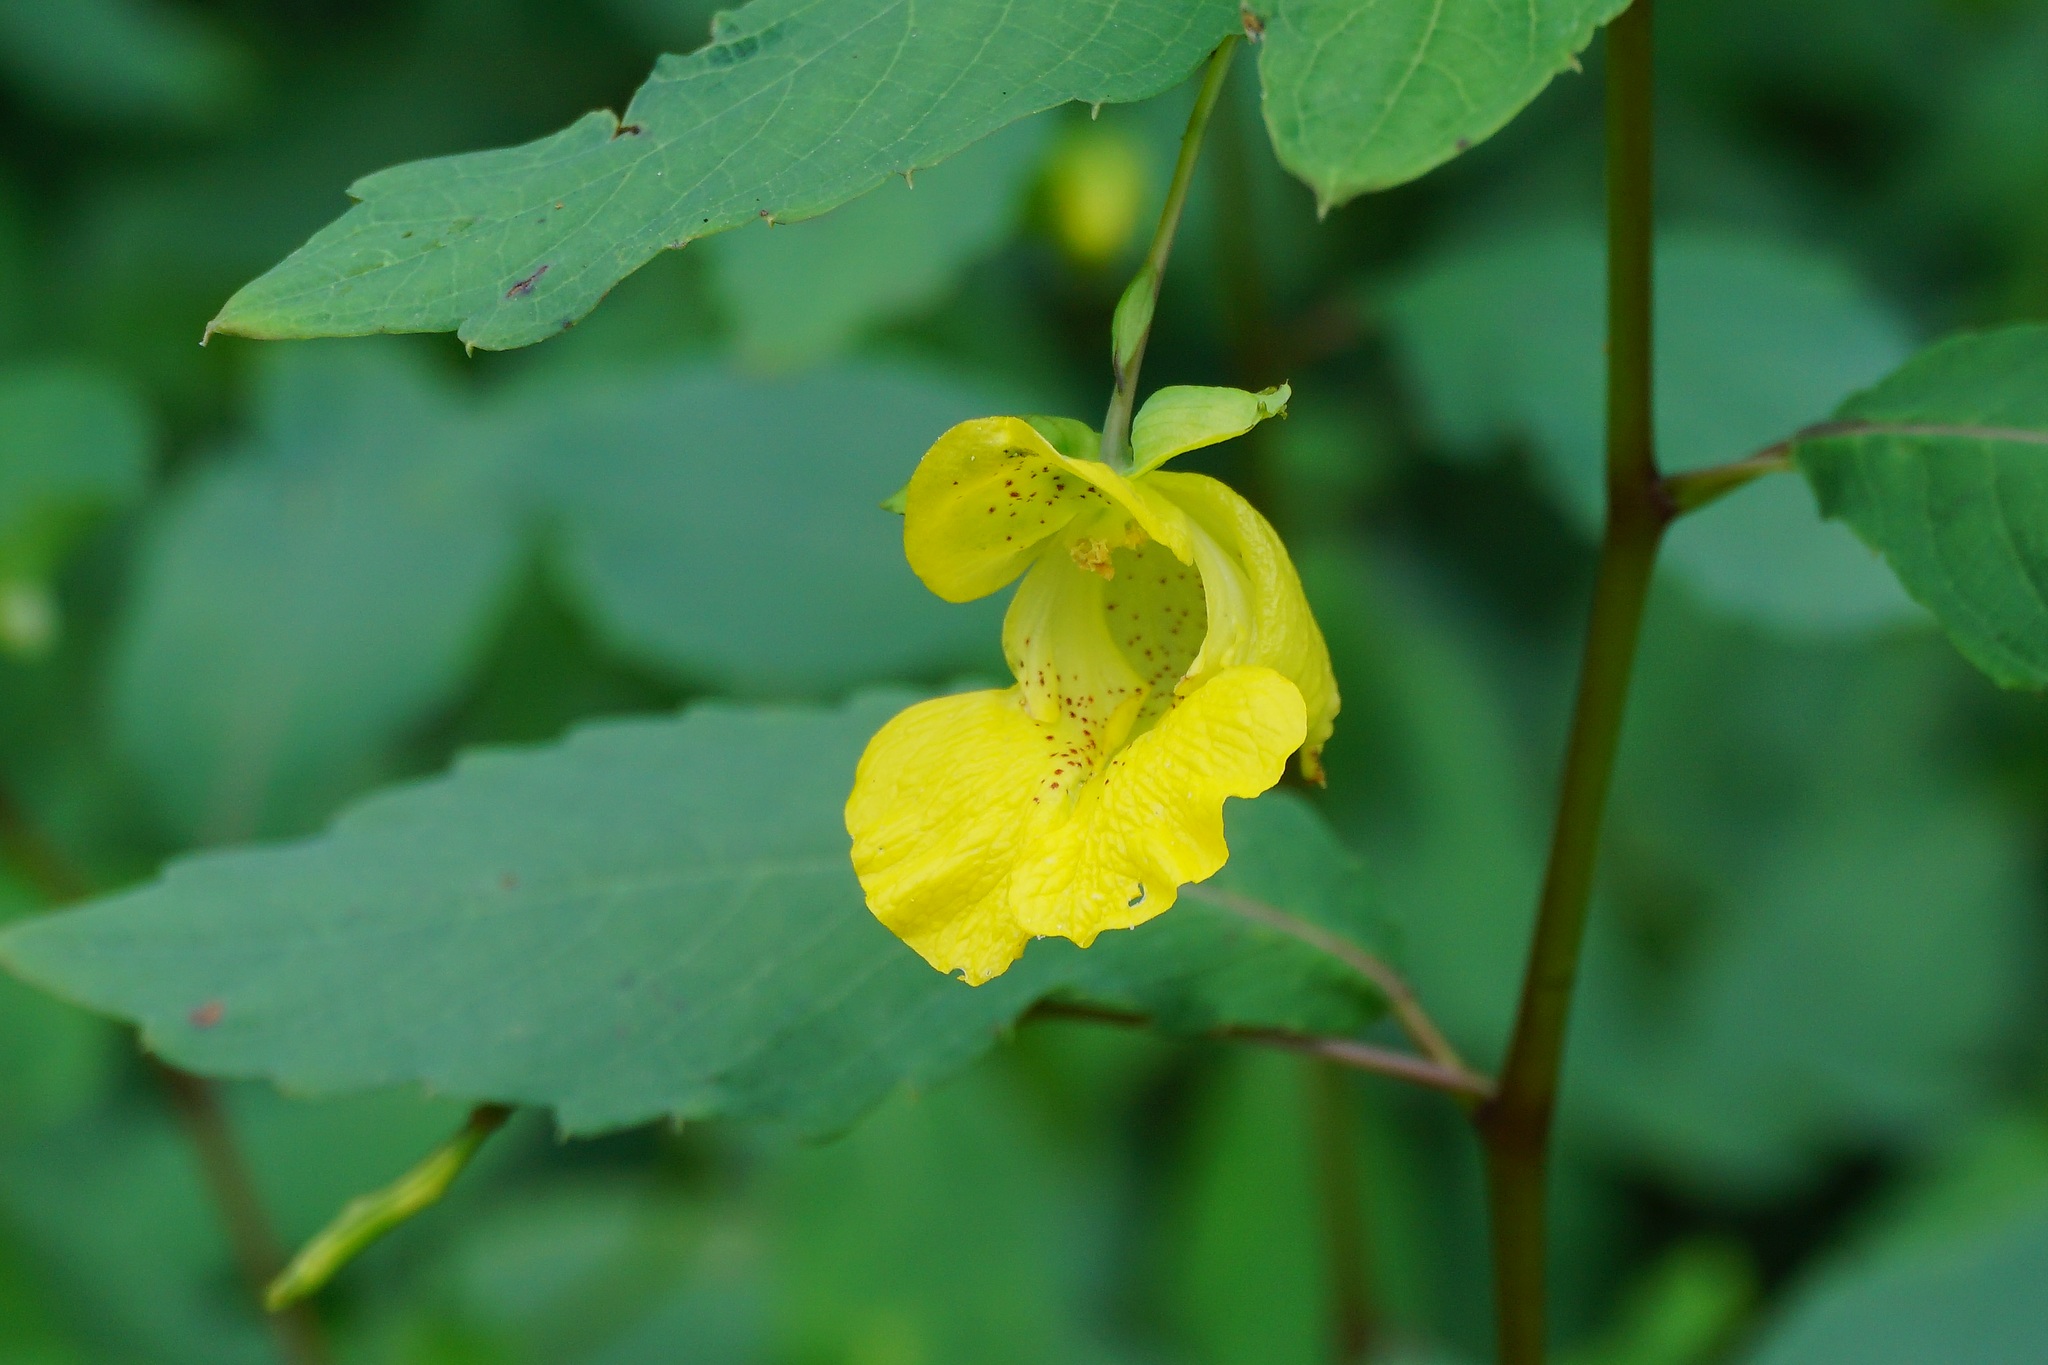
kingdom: Plantae
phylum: Tracheophyta
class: Magnoliopsida
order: Ericales
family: Balsaminaceae
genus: Impatiens
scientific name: Impatiens pallida
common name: Pale snapweed
